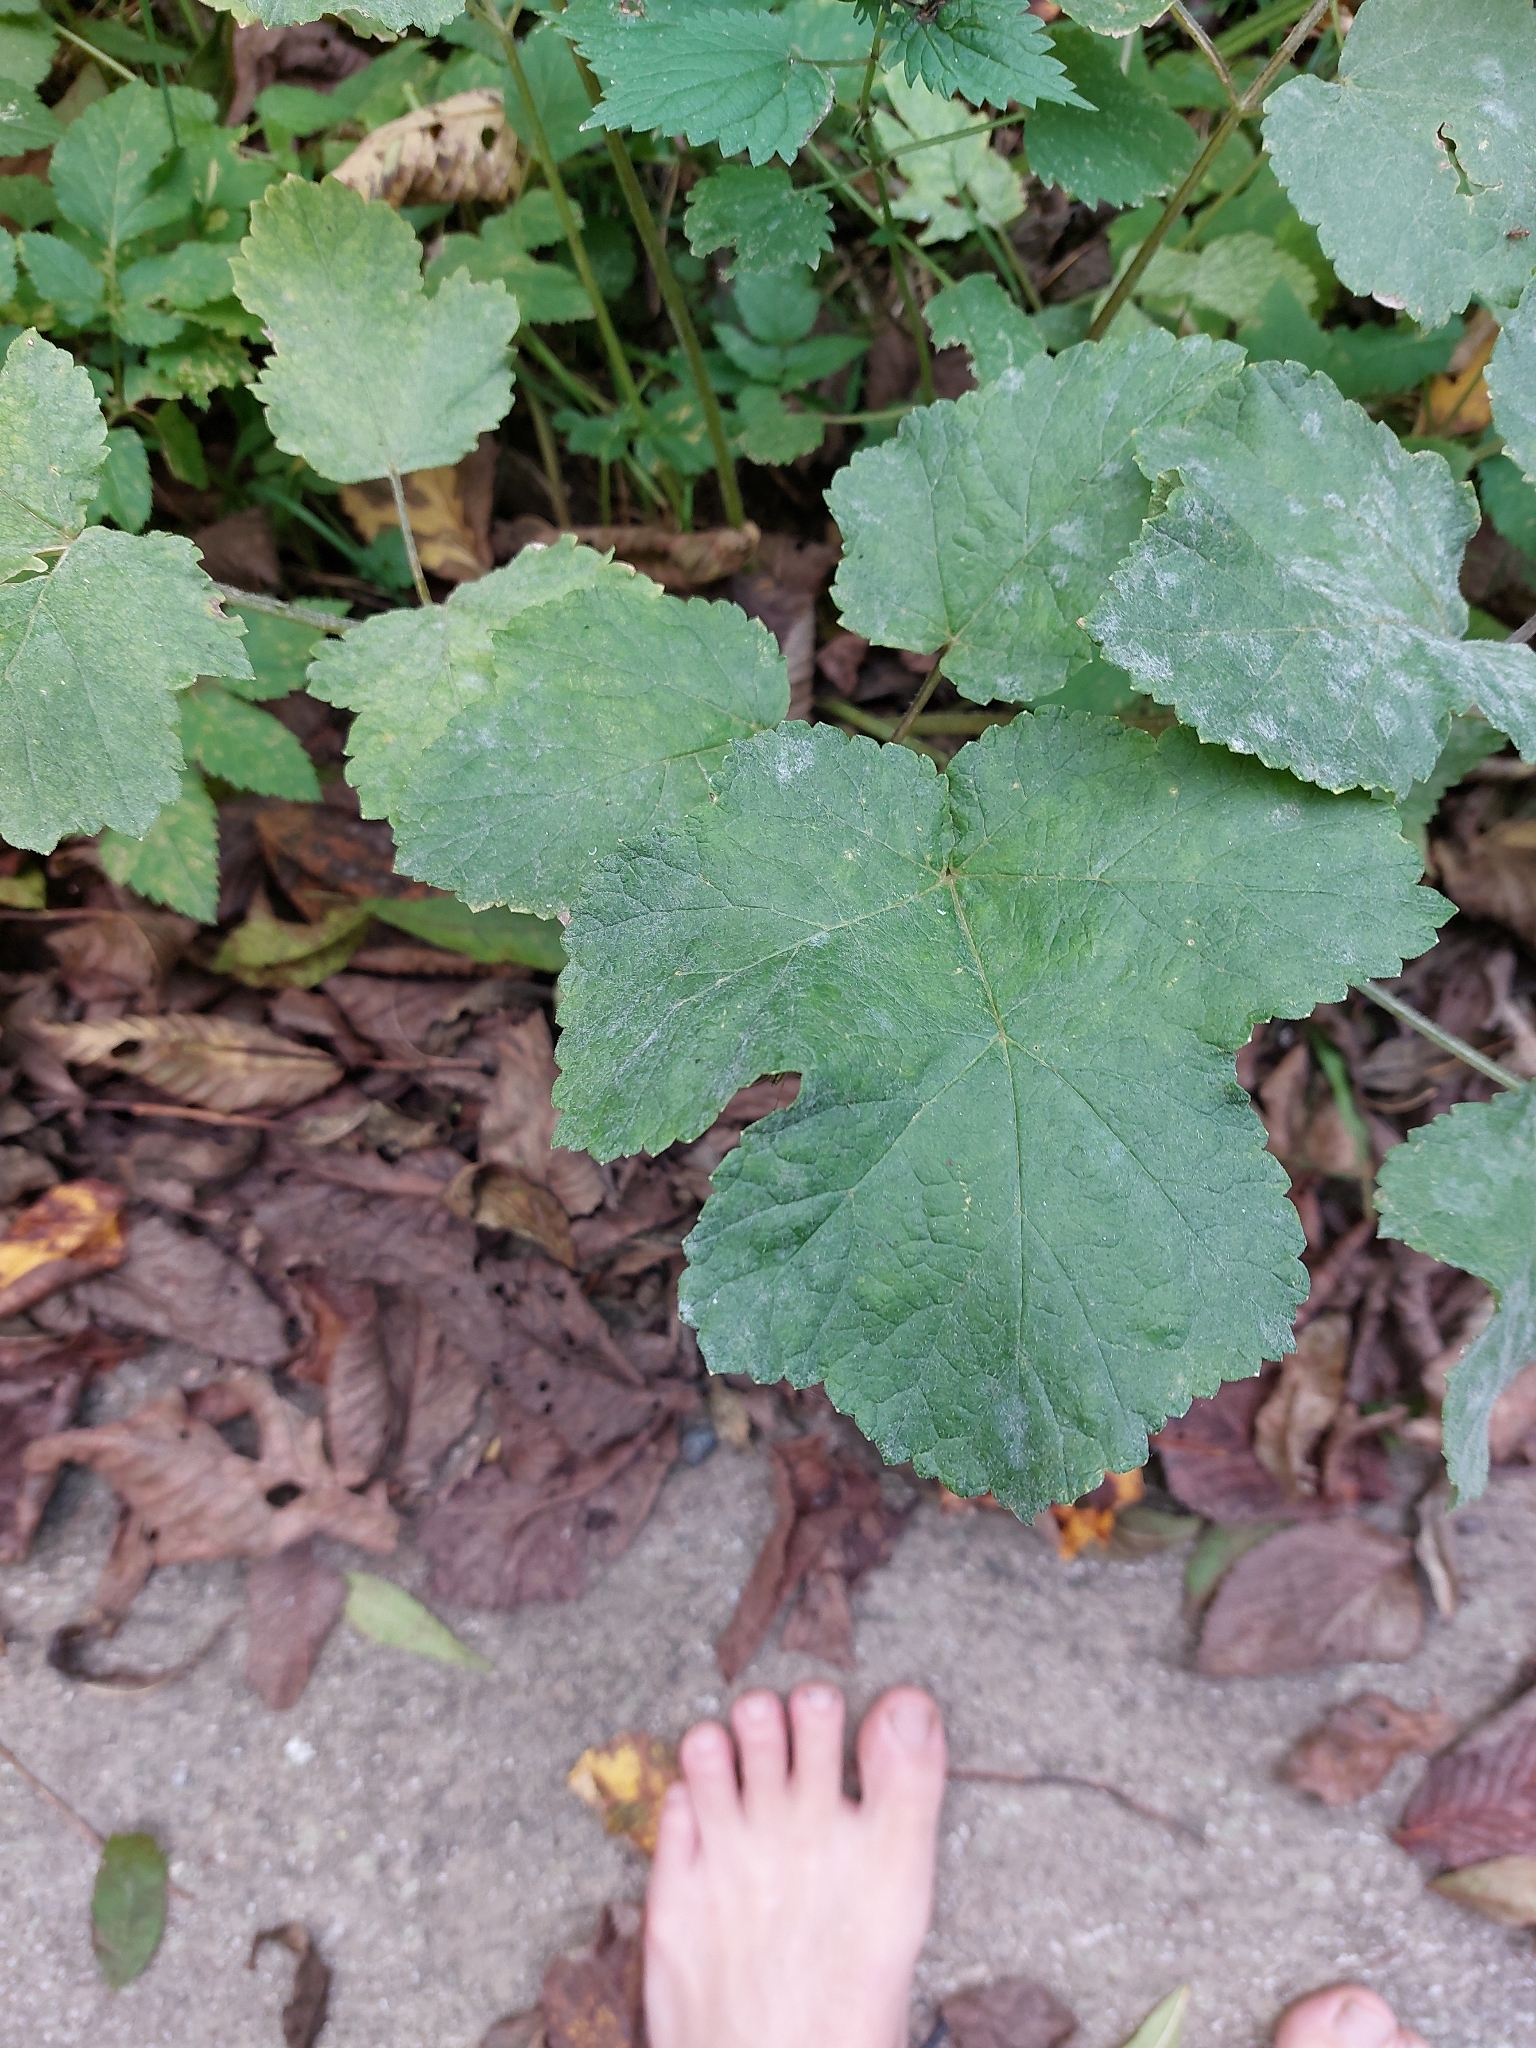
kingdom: Plantae
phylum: Tracheophyta
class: Magnoliopsida
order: Apiales
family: Apiaceae
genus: Heracleum
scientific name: Heracleum sphondylium
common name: Hogweed
